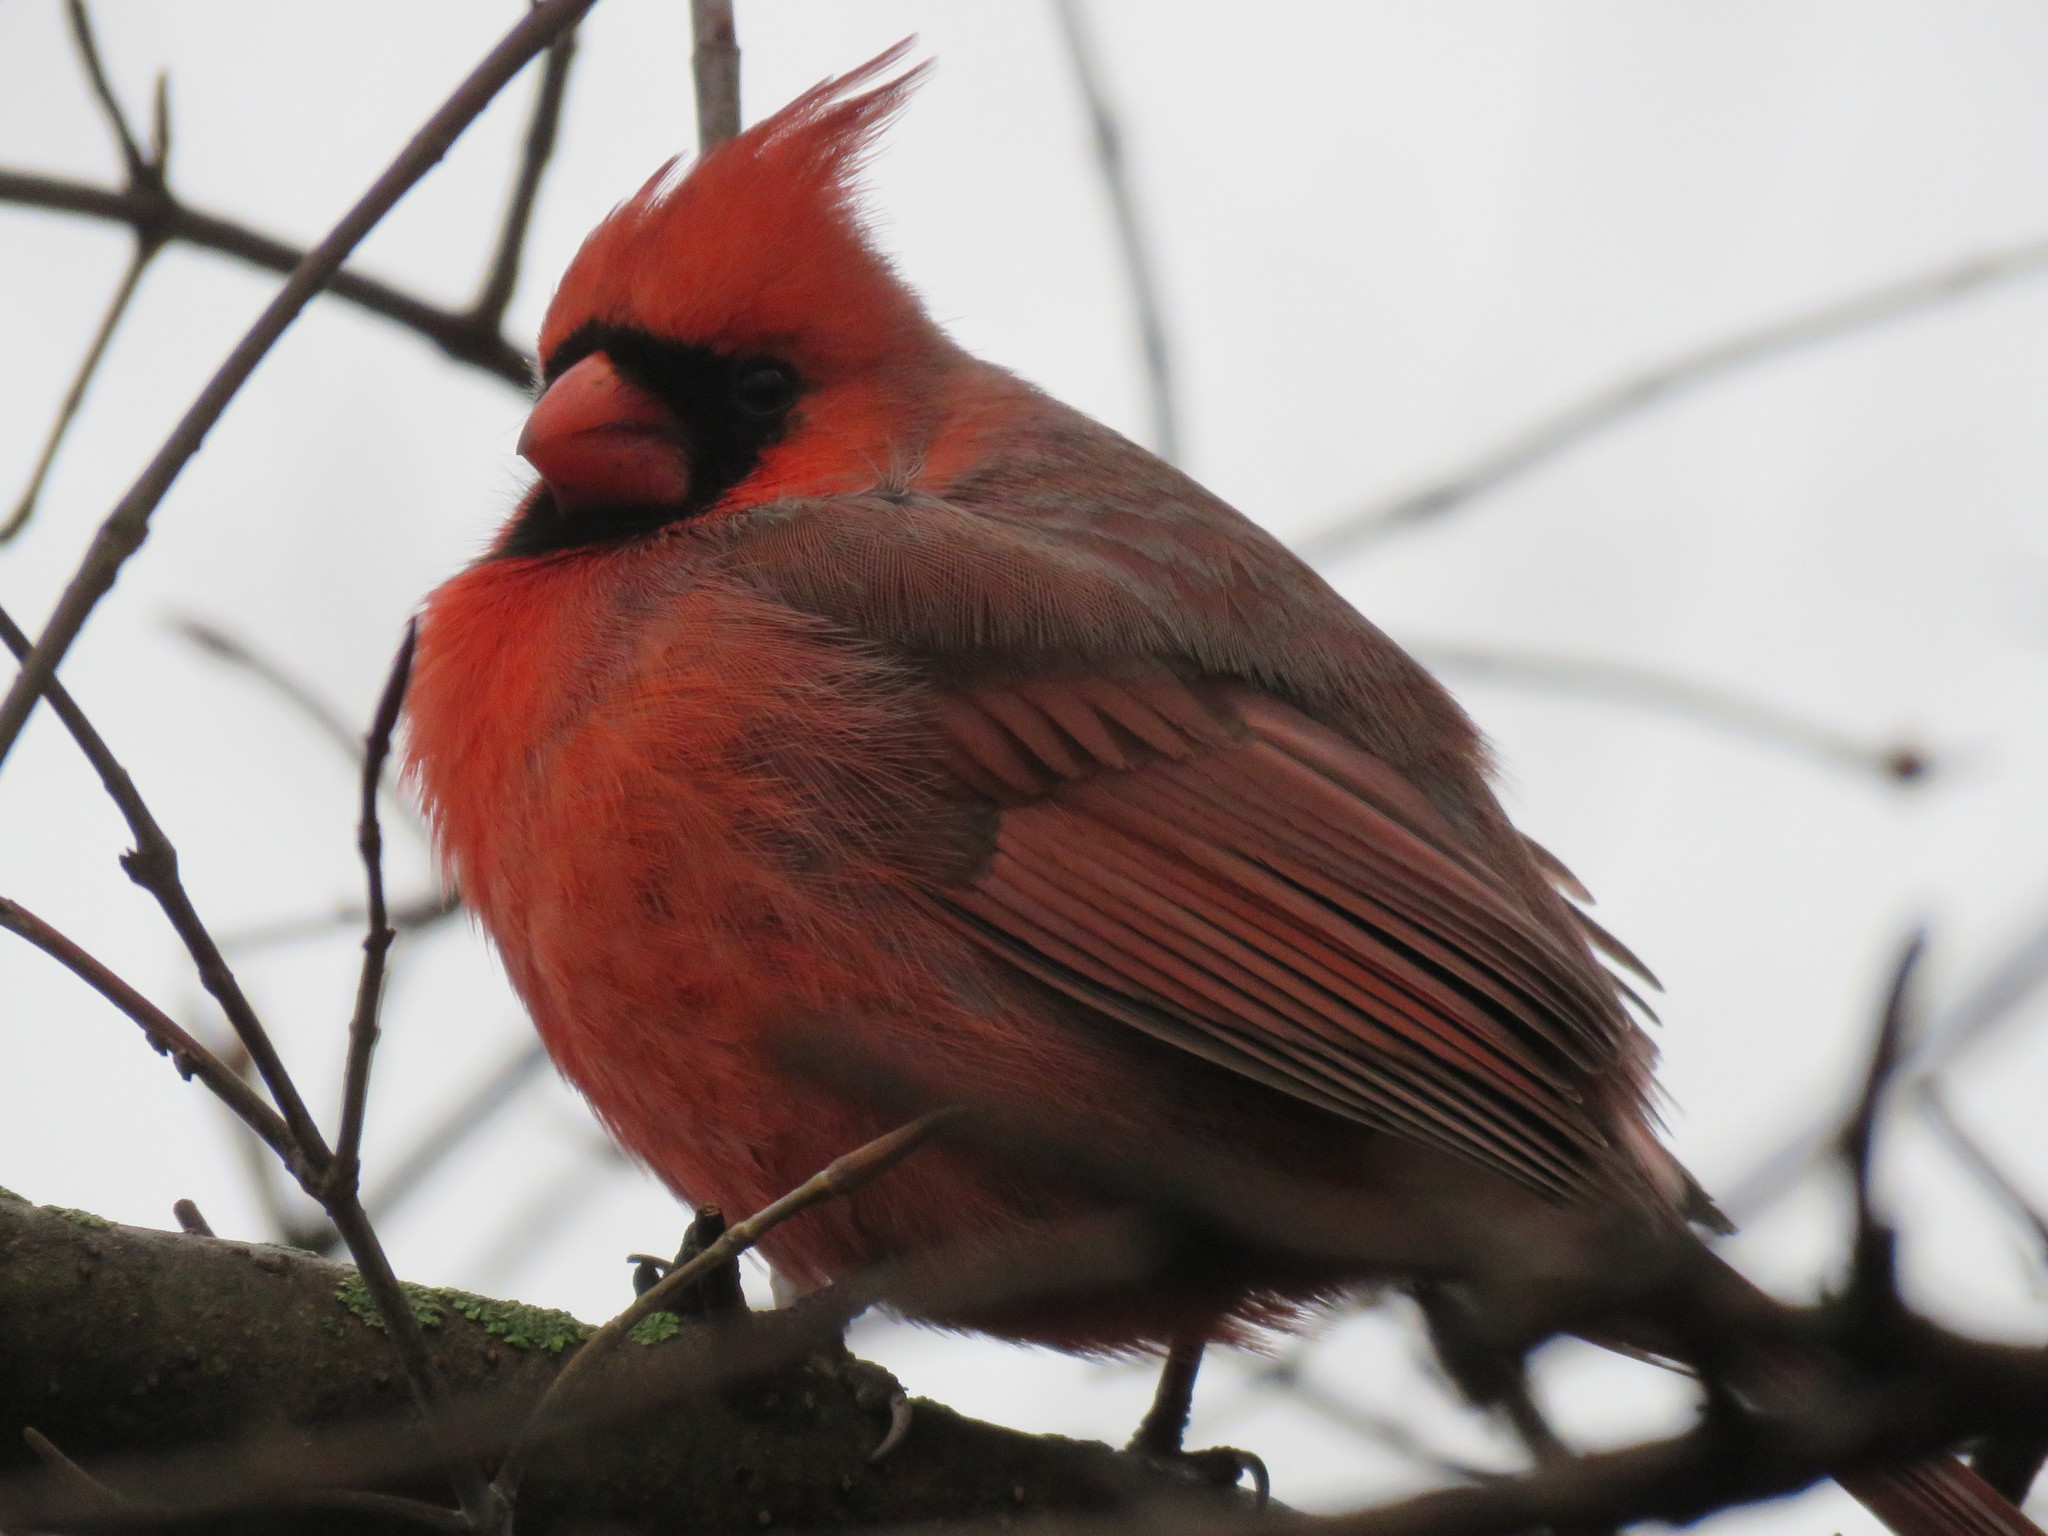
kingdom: Animalia
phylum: Chordata
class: Aves
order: Passeriformes
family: Cardinalidae
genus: Cardinalis
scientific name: Cardinalis cardinalis
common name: Northern cardinal
